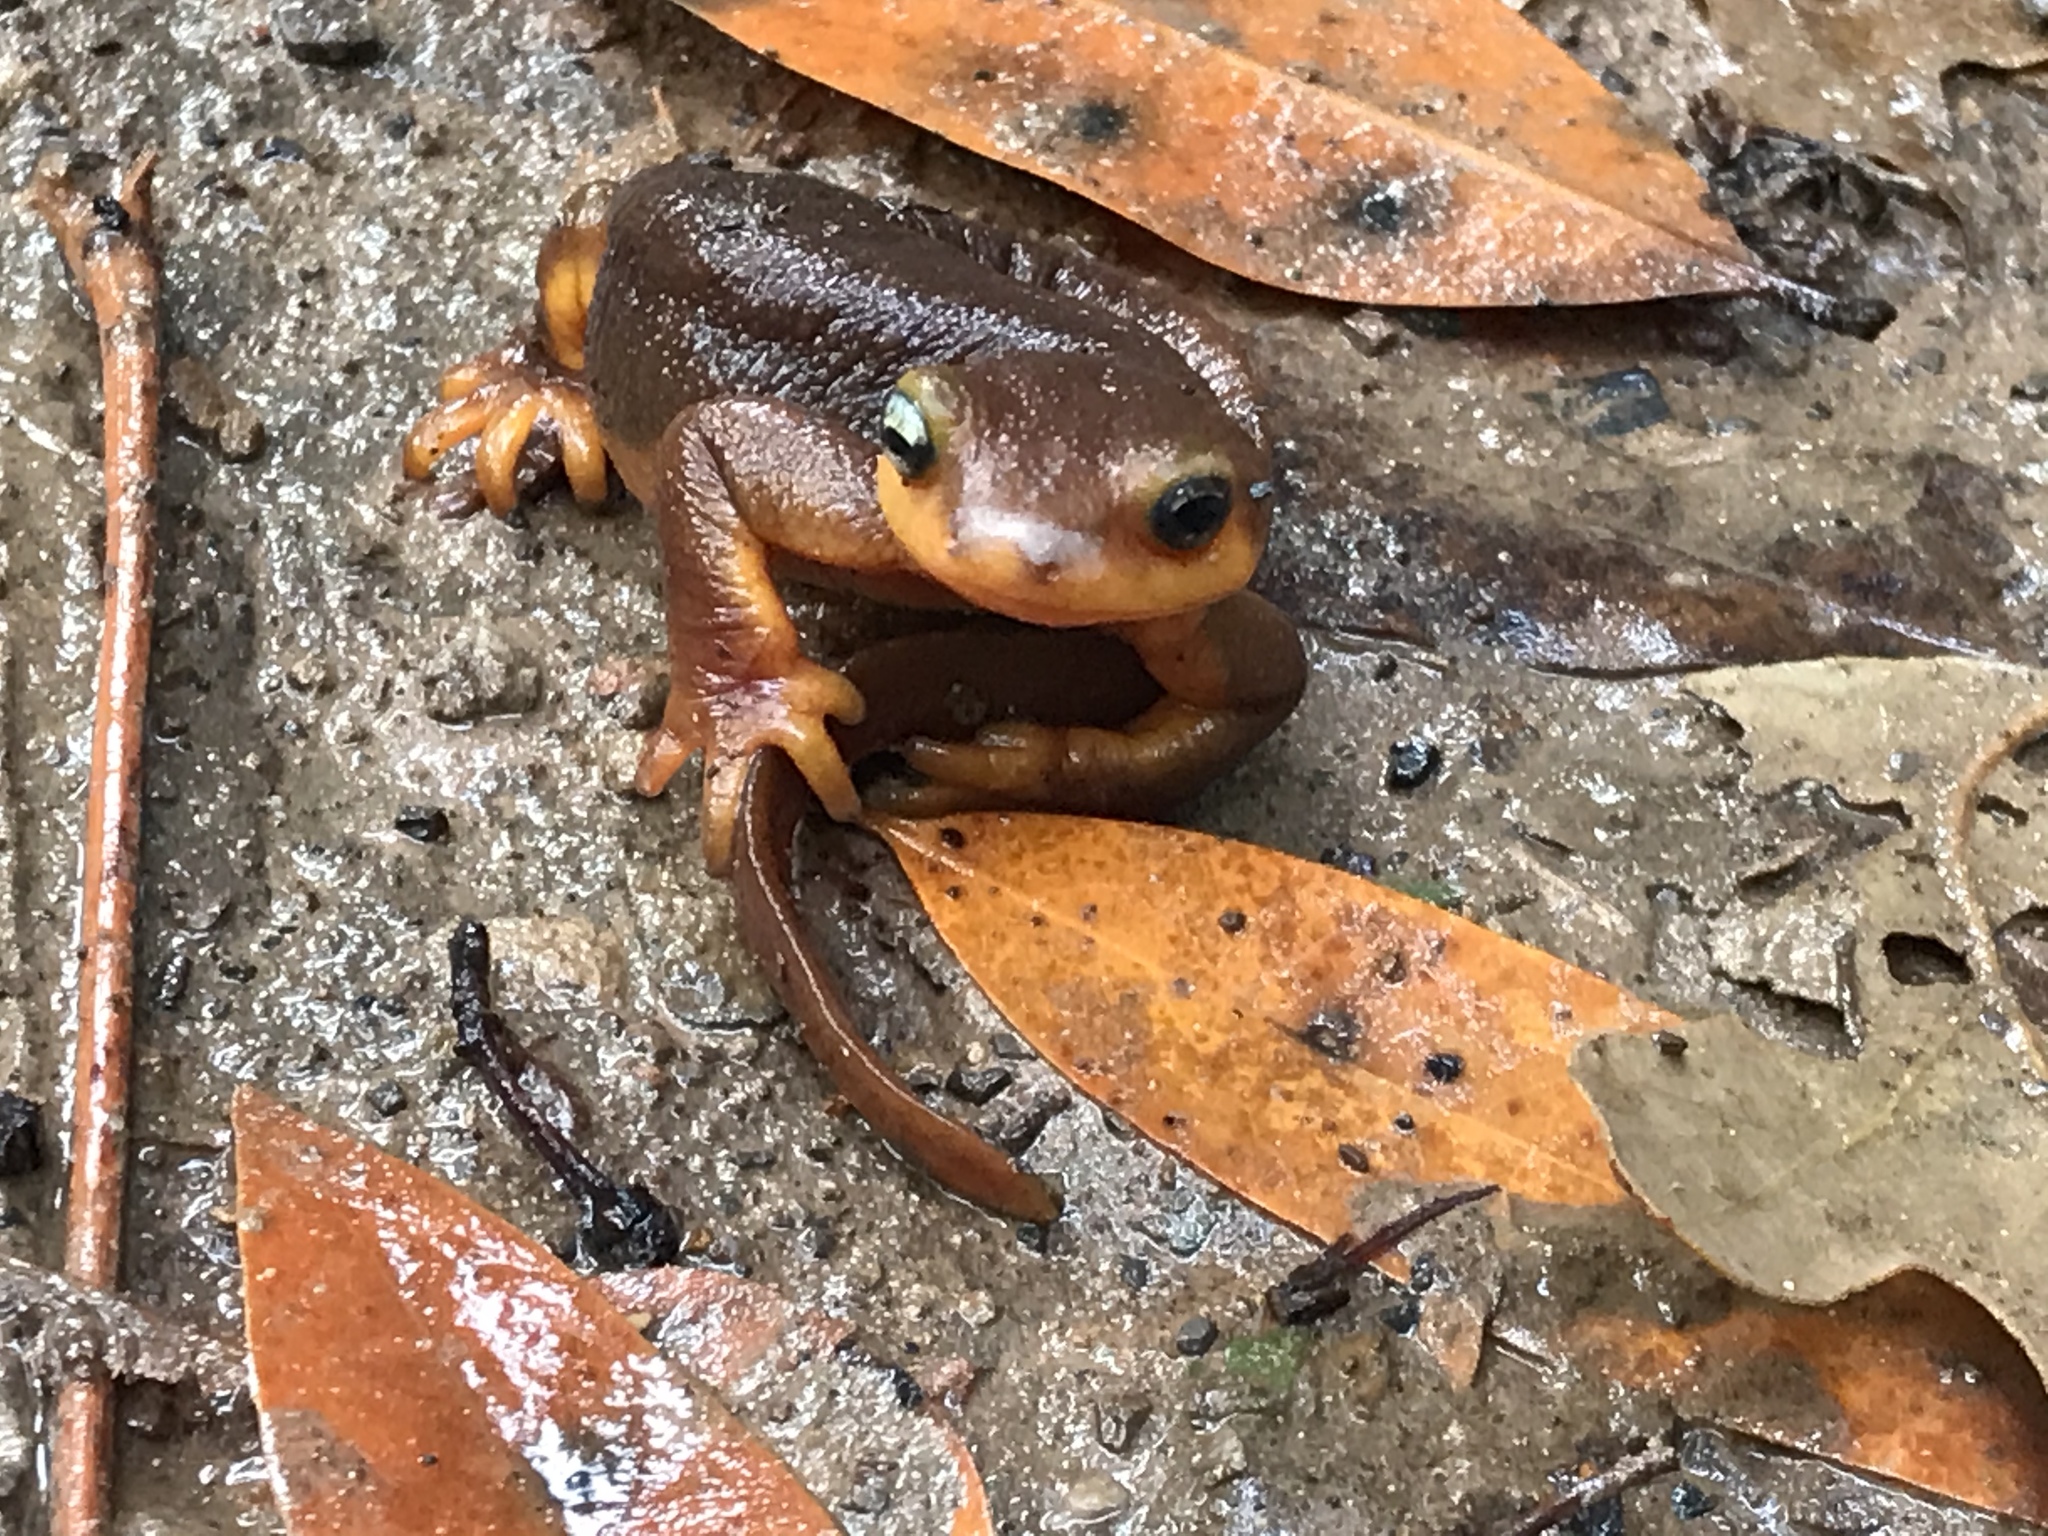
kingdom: Animalia
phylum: Chordata
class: Amphibia
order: Caudata
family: Salamandridae
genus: Taricha
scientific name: Taricha torosa
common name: California newt
